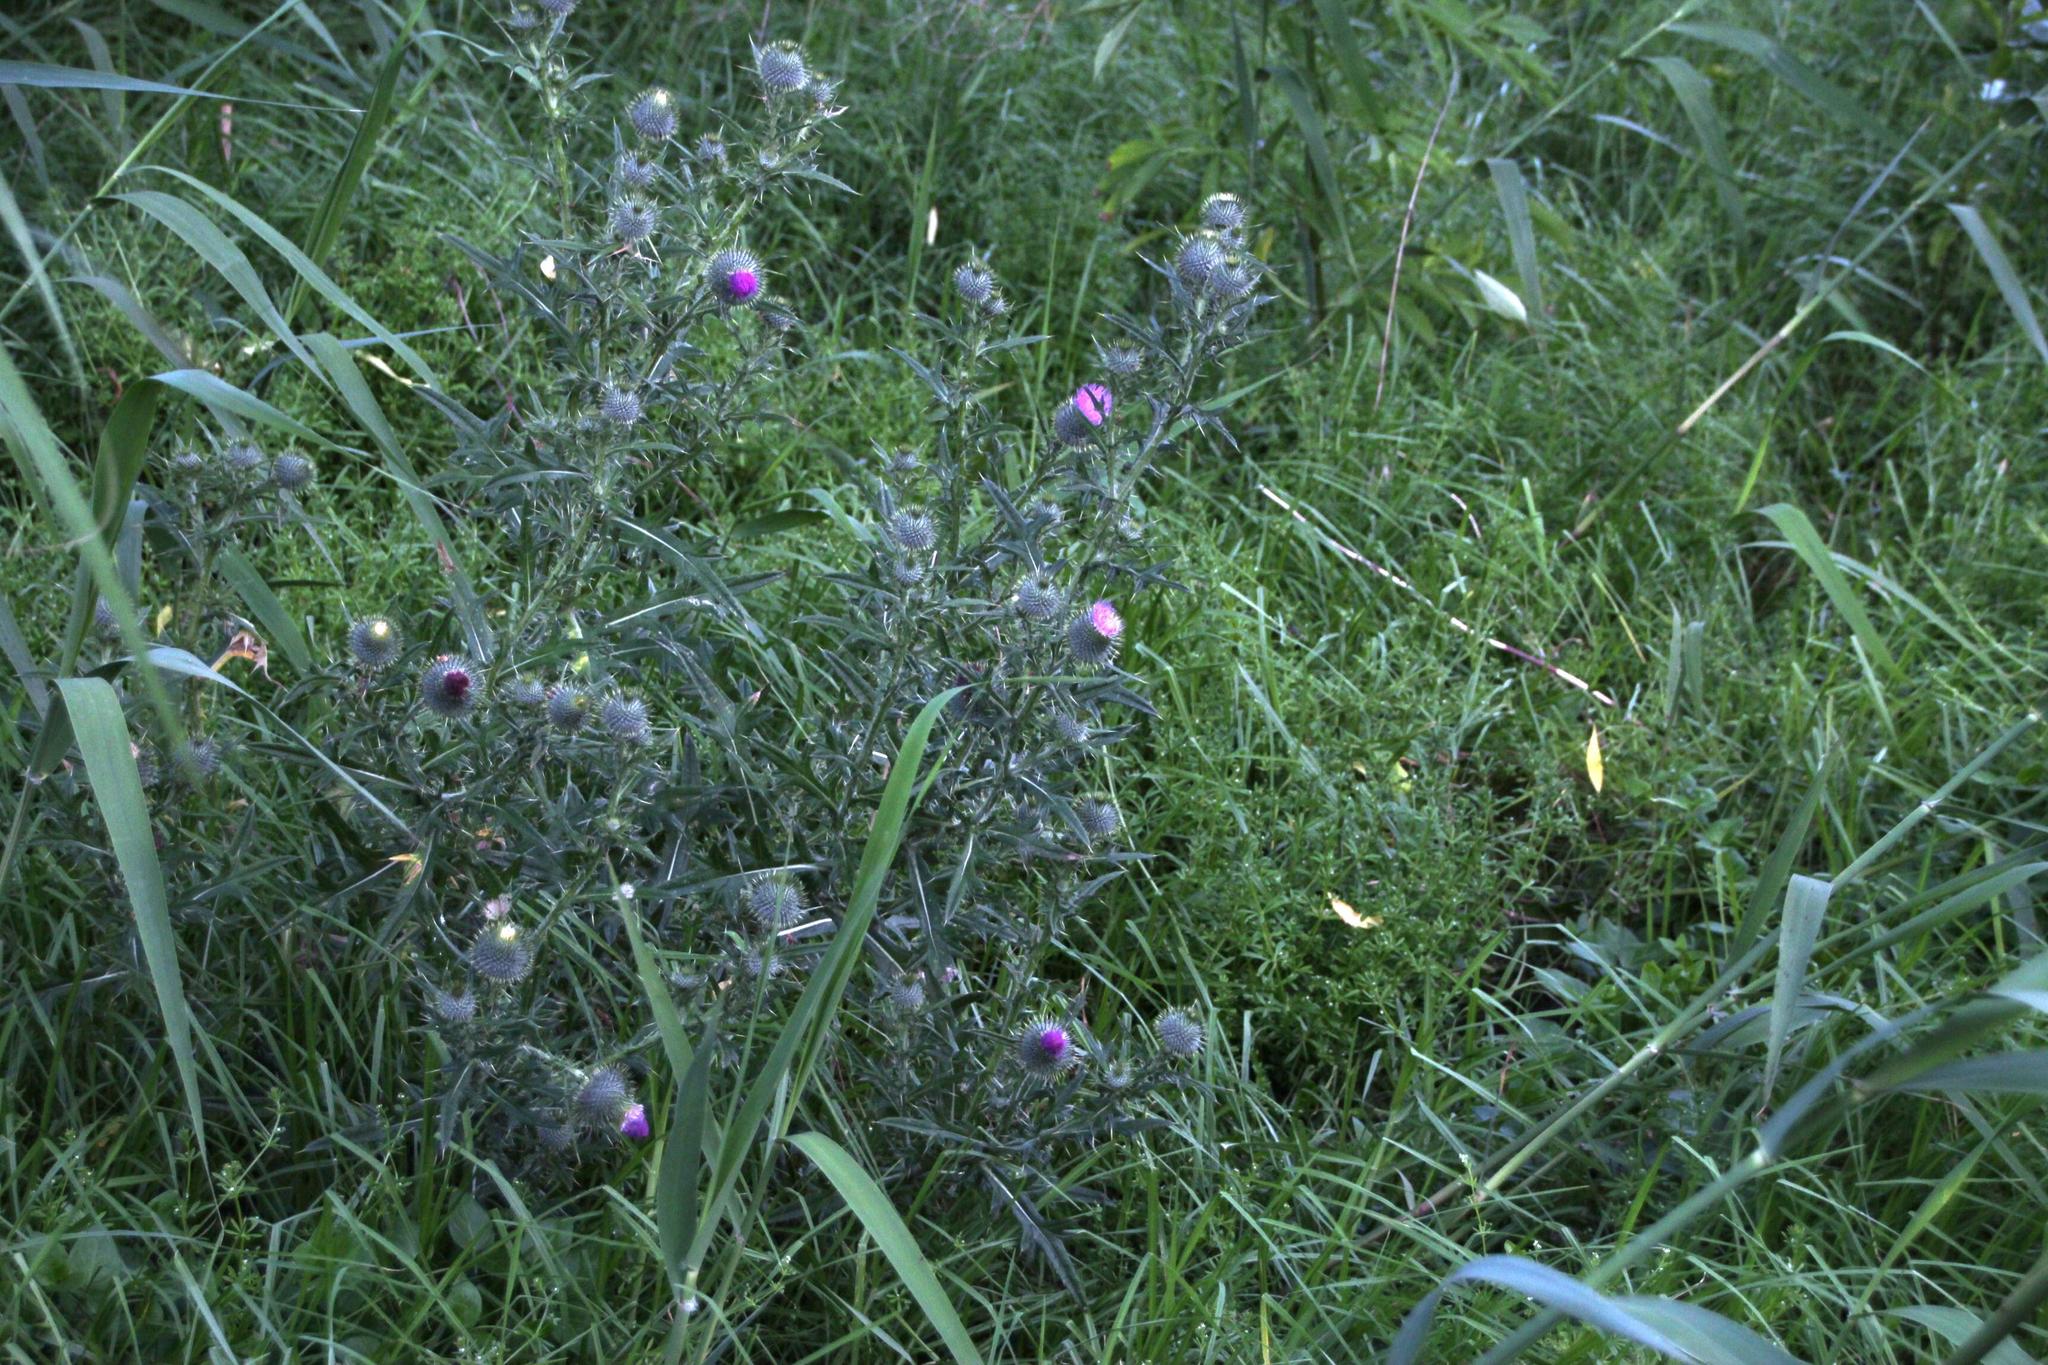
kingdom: Plantae
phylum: Tracheophyta
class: Magnoliopsida
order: Asterales
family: Asteraceae
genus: Cirsium
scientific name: Cirsium vulgare
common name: Bull thistle
